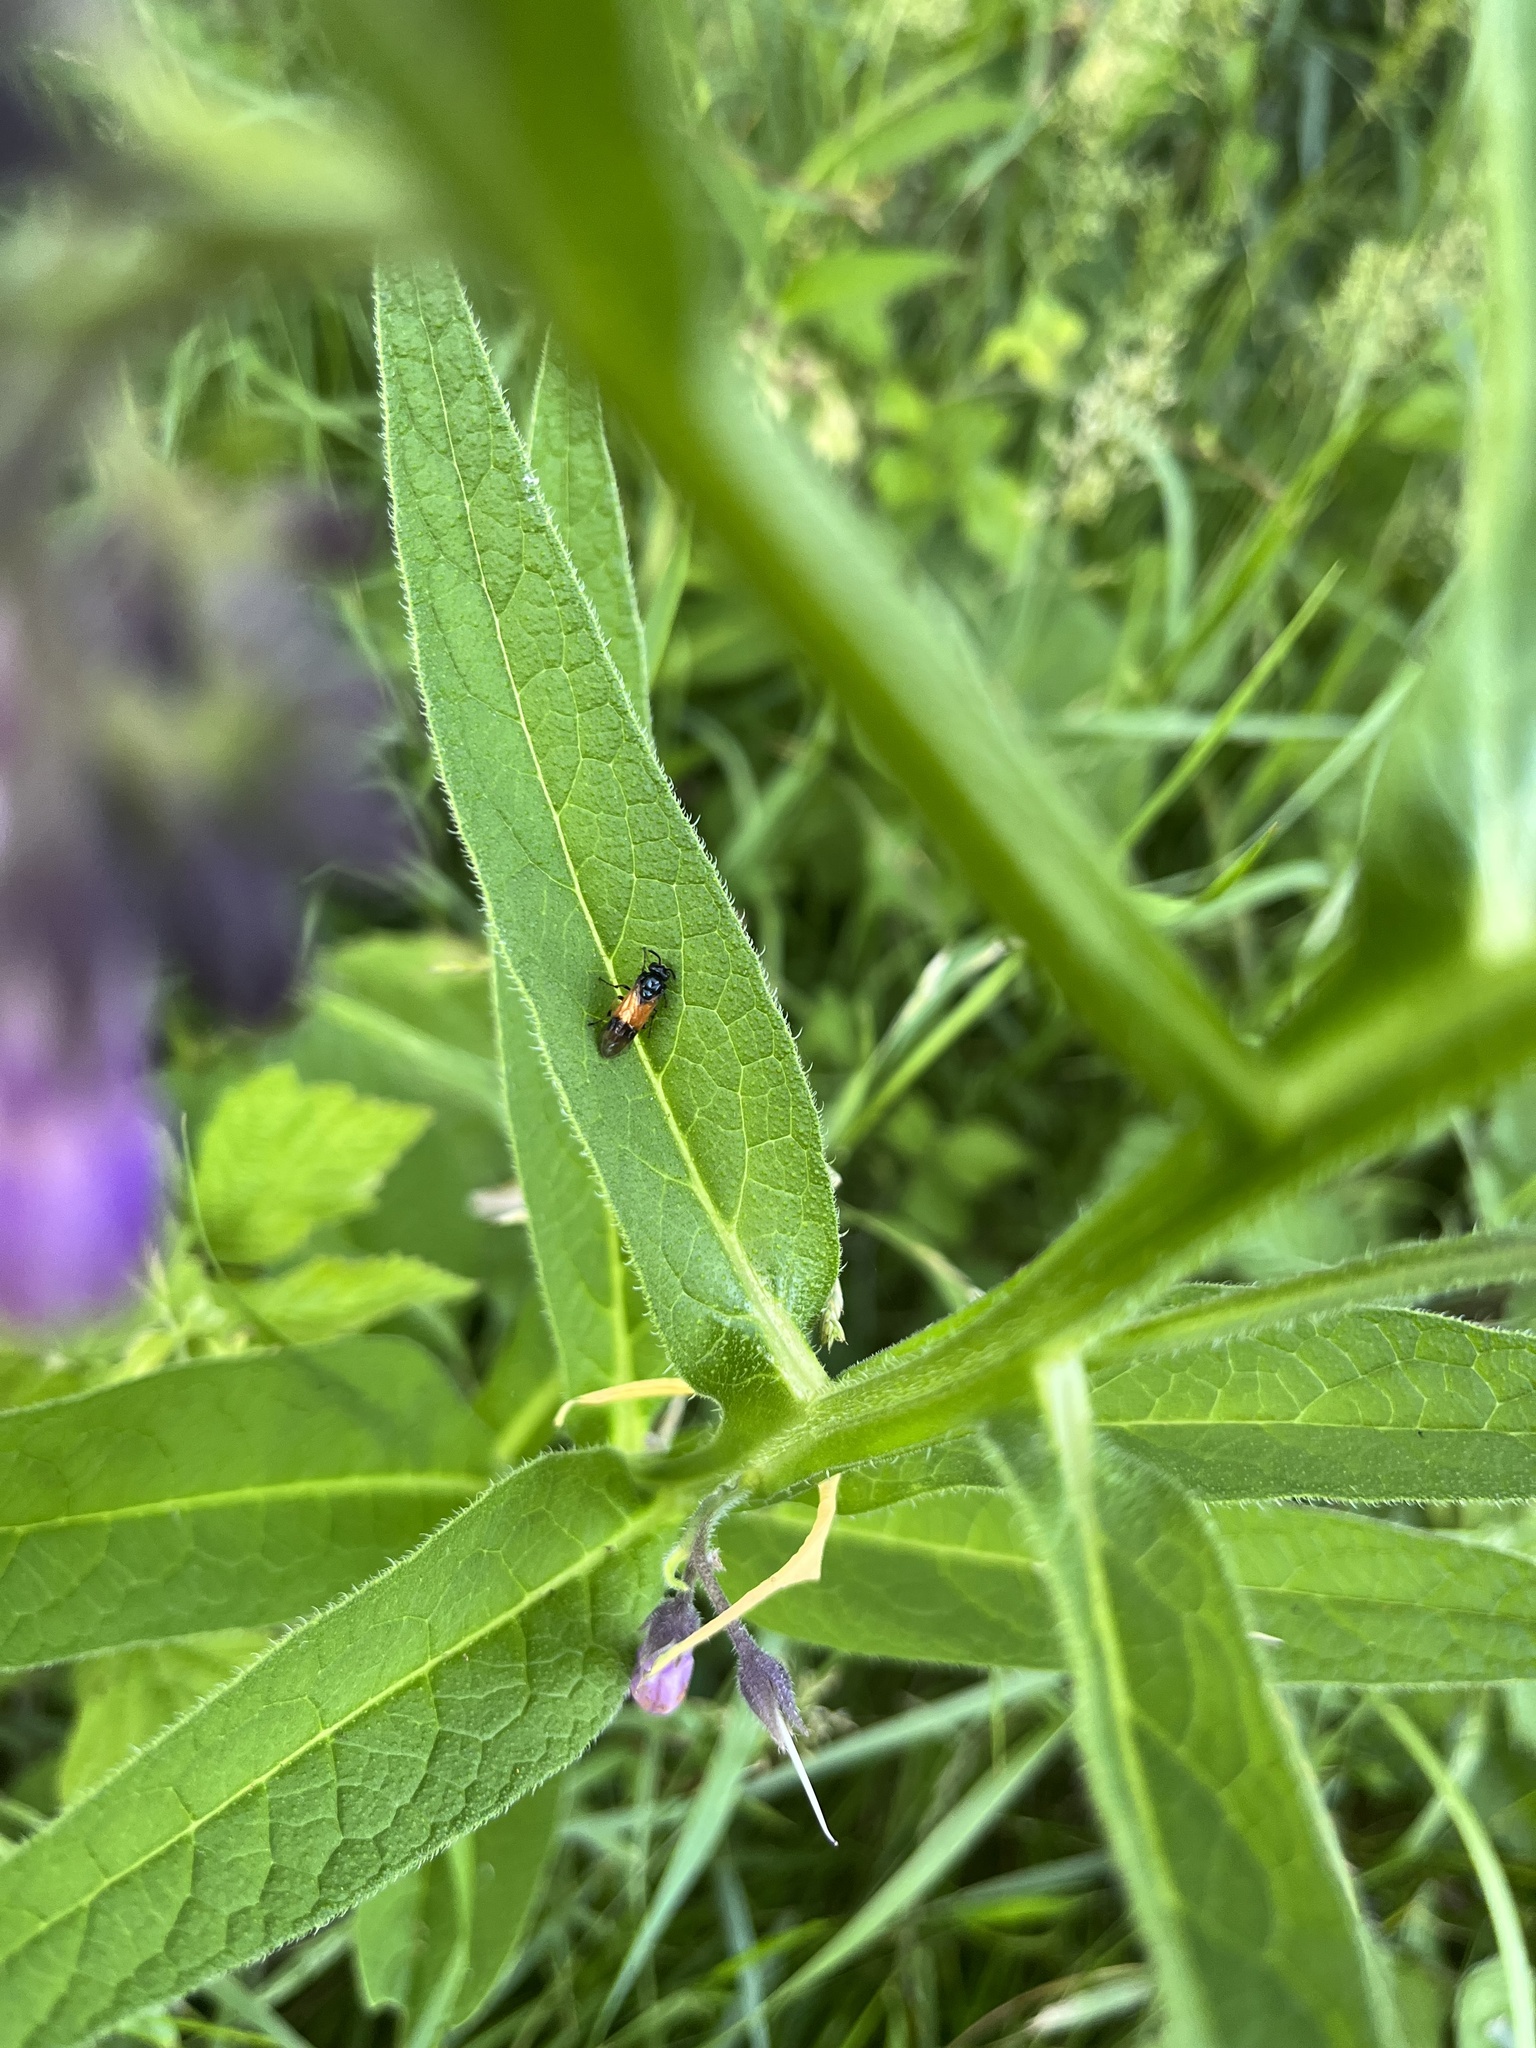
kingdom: Animalia
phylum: Arthropoda
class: Insecta
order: Hymenoptera
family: Argidae
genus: Arge
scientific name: Arge cyanocrocea
